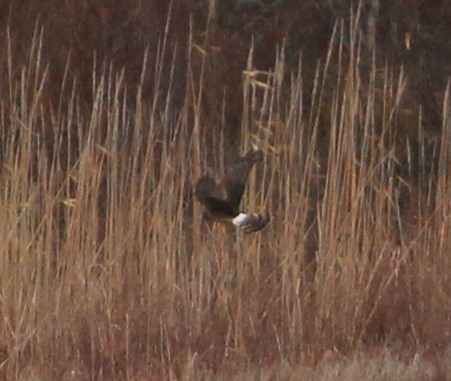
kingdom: Animalia
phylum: Chordata
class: Aves
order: Accipitriformes
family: Accipitridae
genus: Circus
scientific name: Circus cyaneus
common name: Hen harrier
